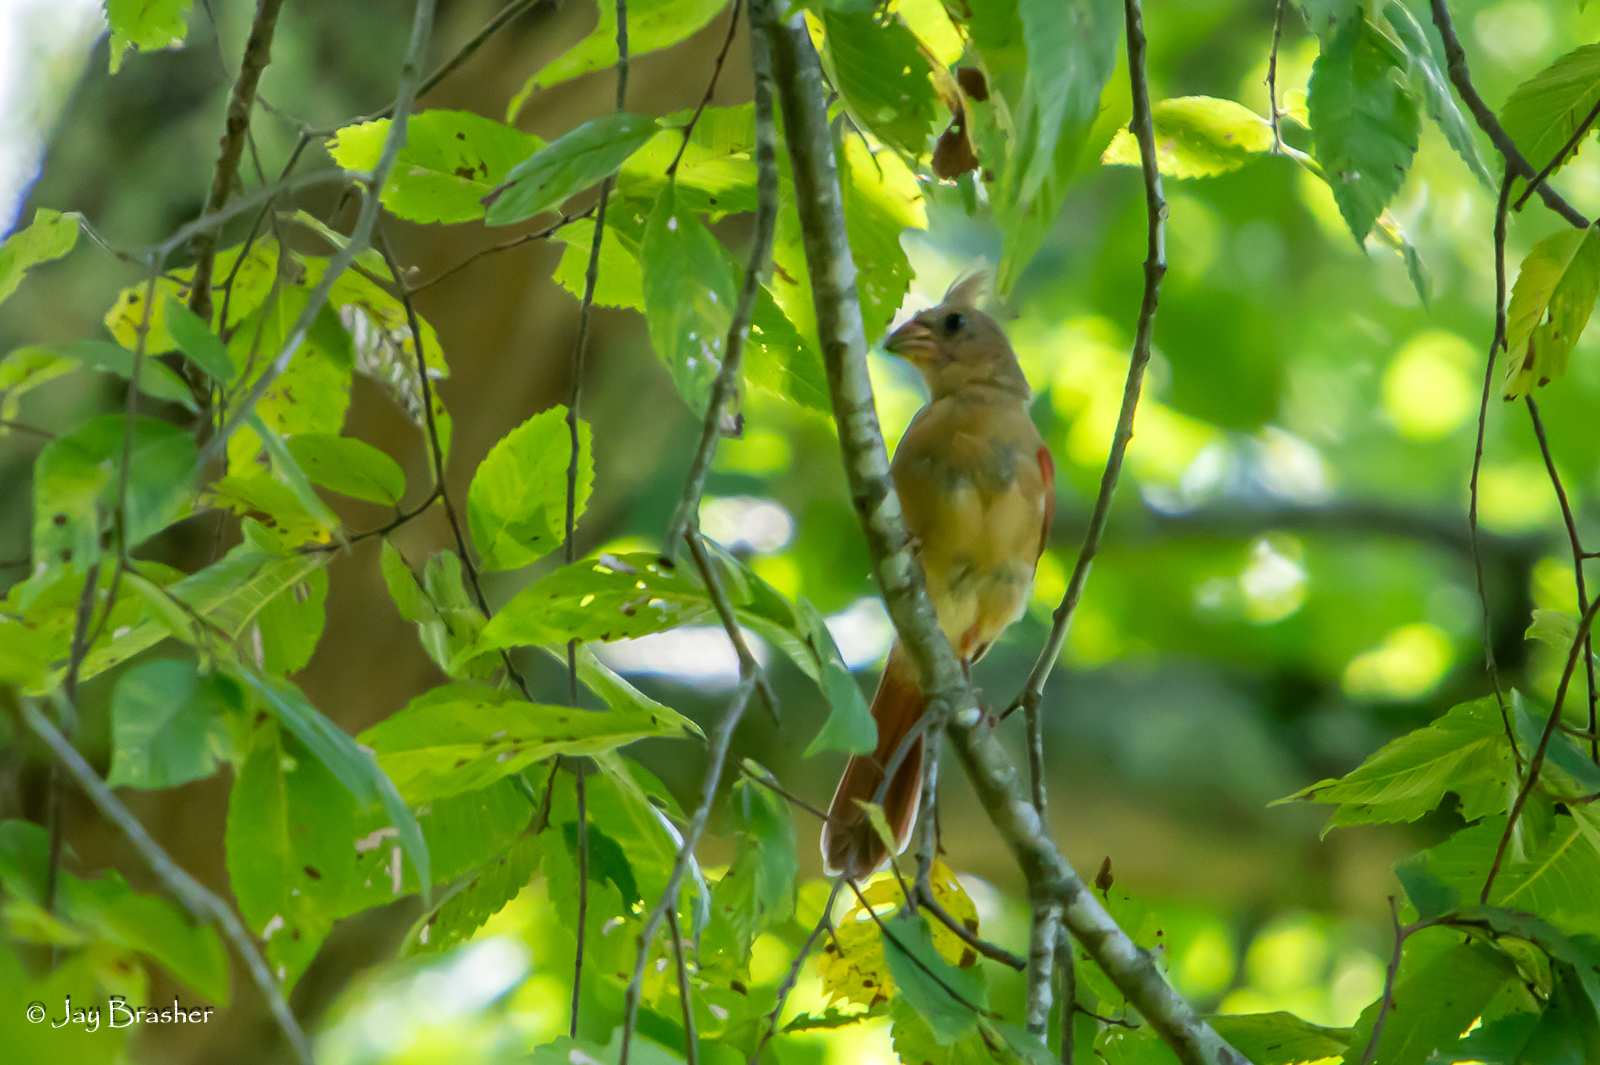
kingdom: Animalia
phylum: Chordata
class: Aves
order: Passeriformes
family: Cardinalidae
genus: Cardinalis
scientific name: Cardinalis cardinalis
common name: Northern cardinal
